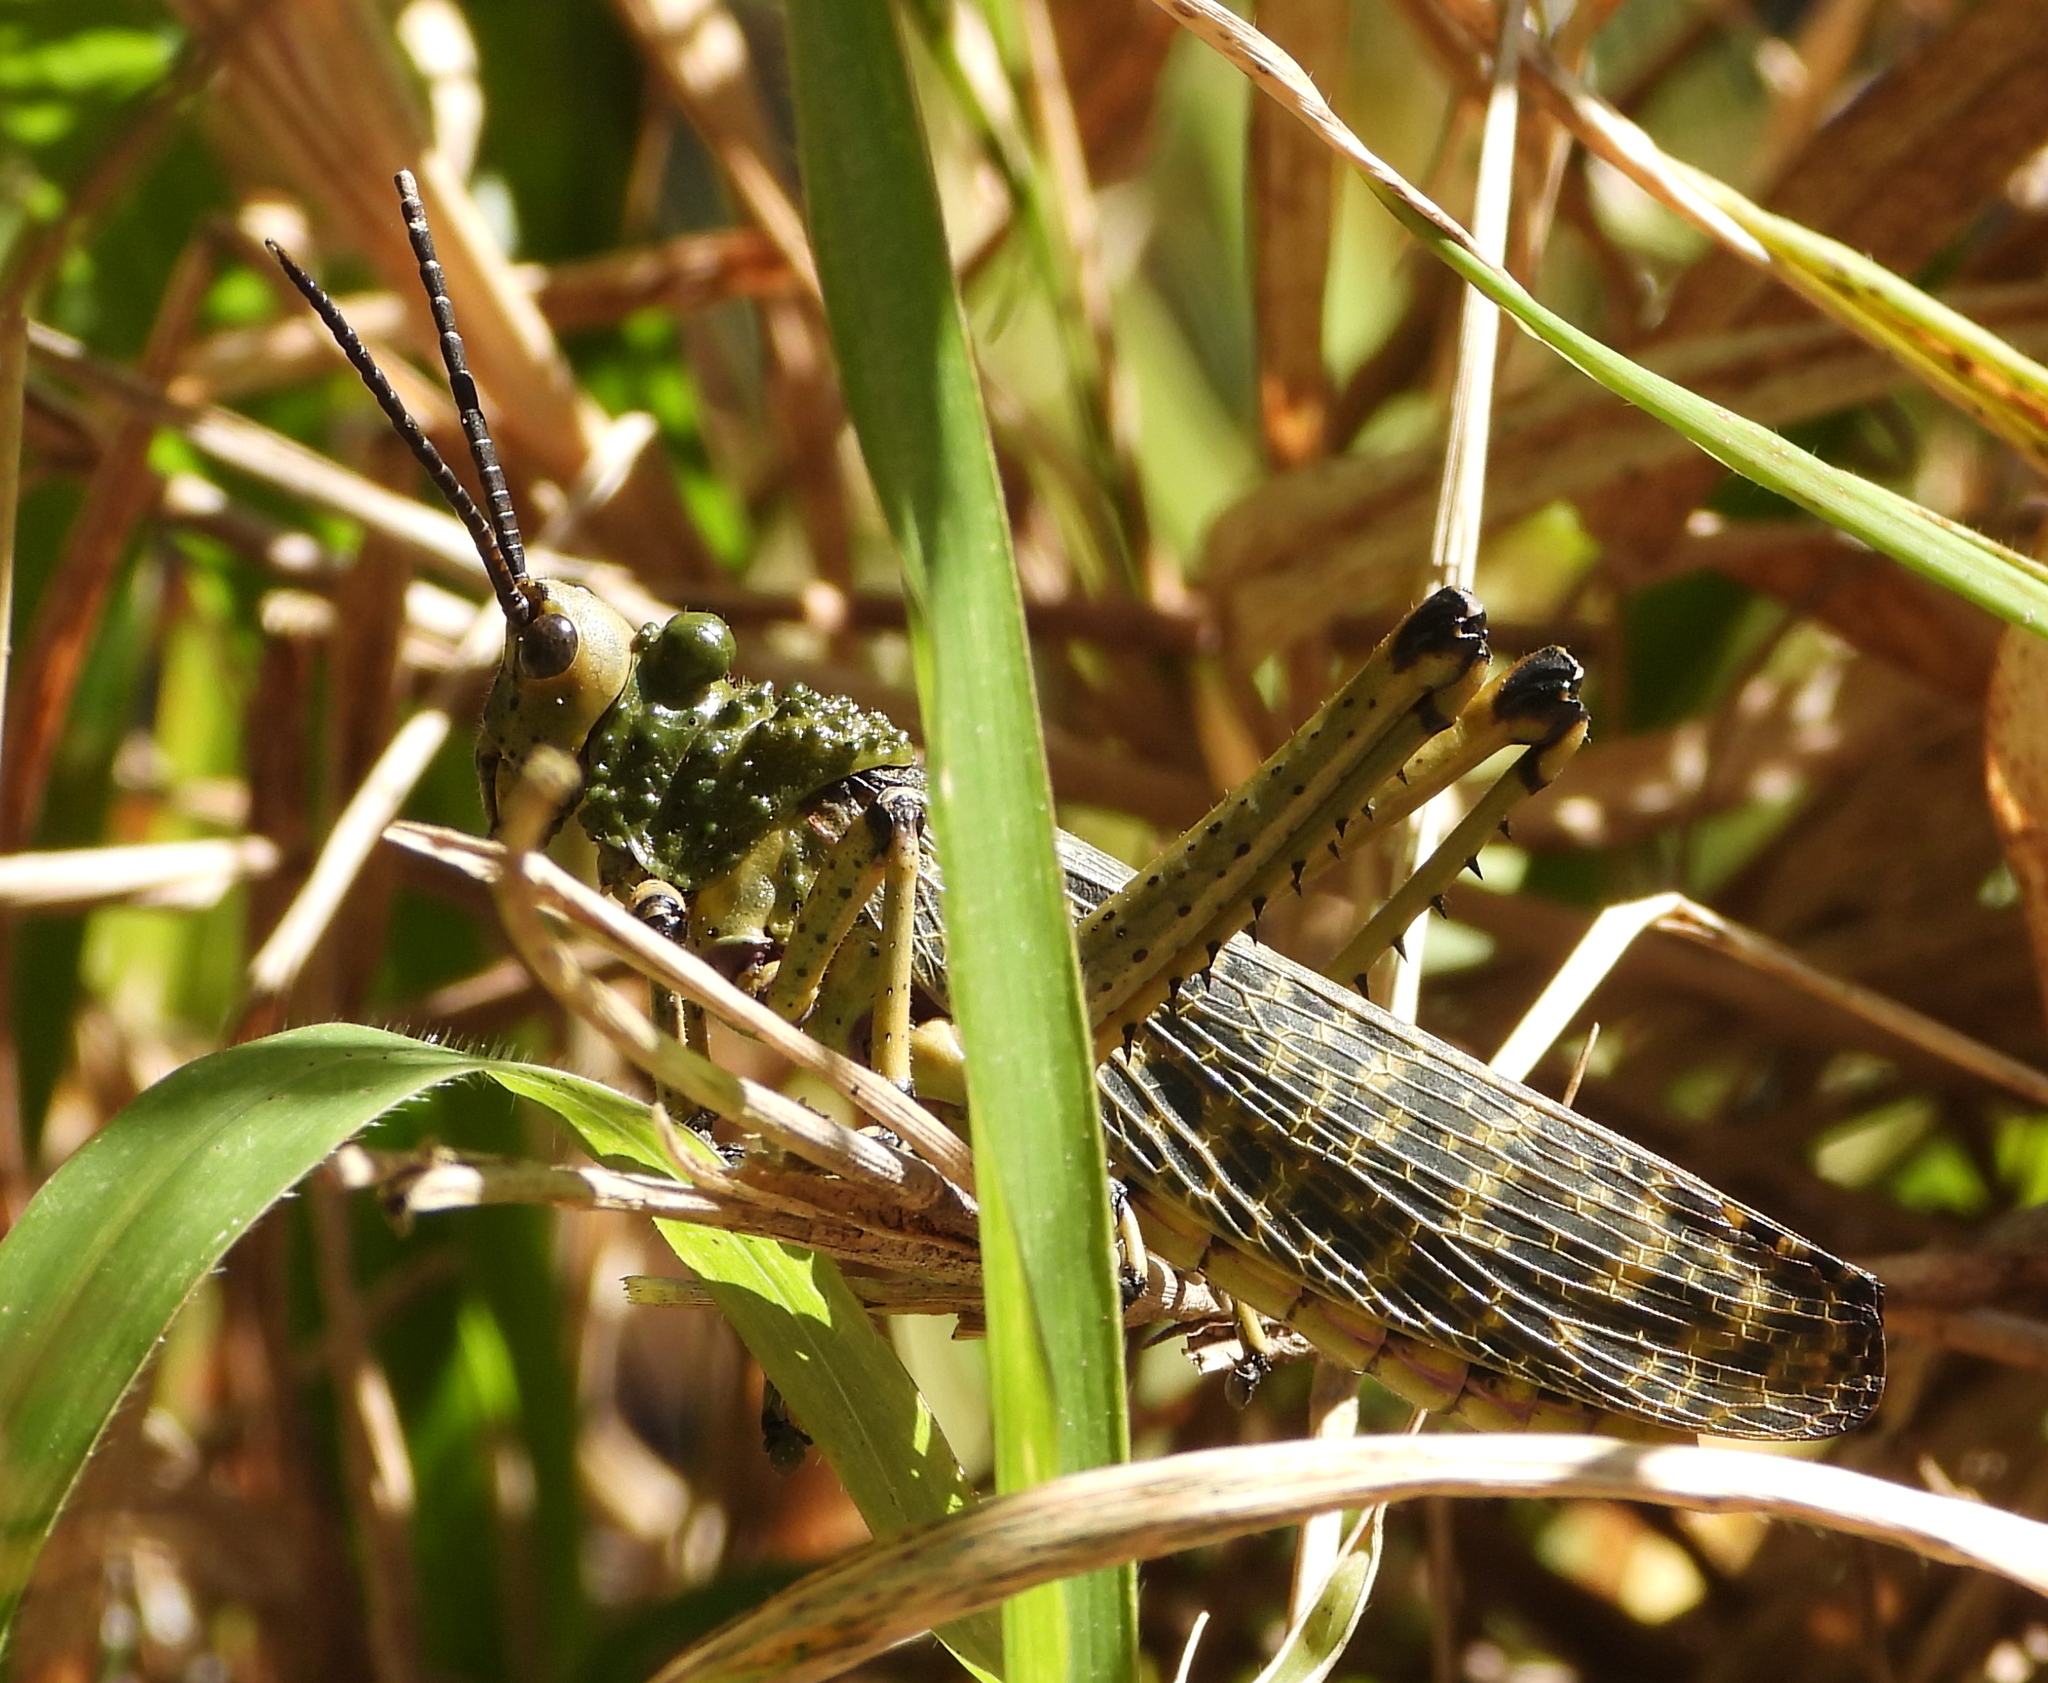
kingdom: Animalia
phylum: Arthropoda
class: Insecta
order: Orthoptera
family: Pyrgomorphidae
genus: Phymateus
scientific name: Phymateus leprosus
